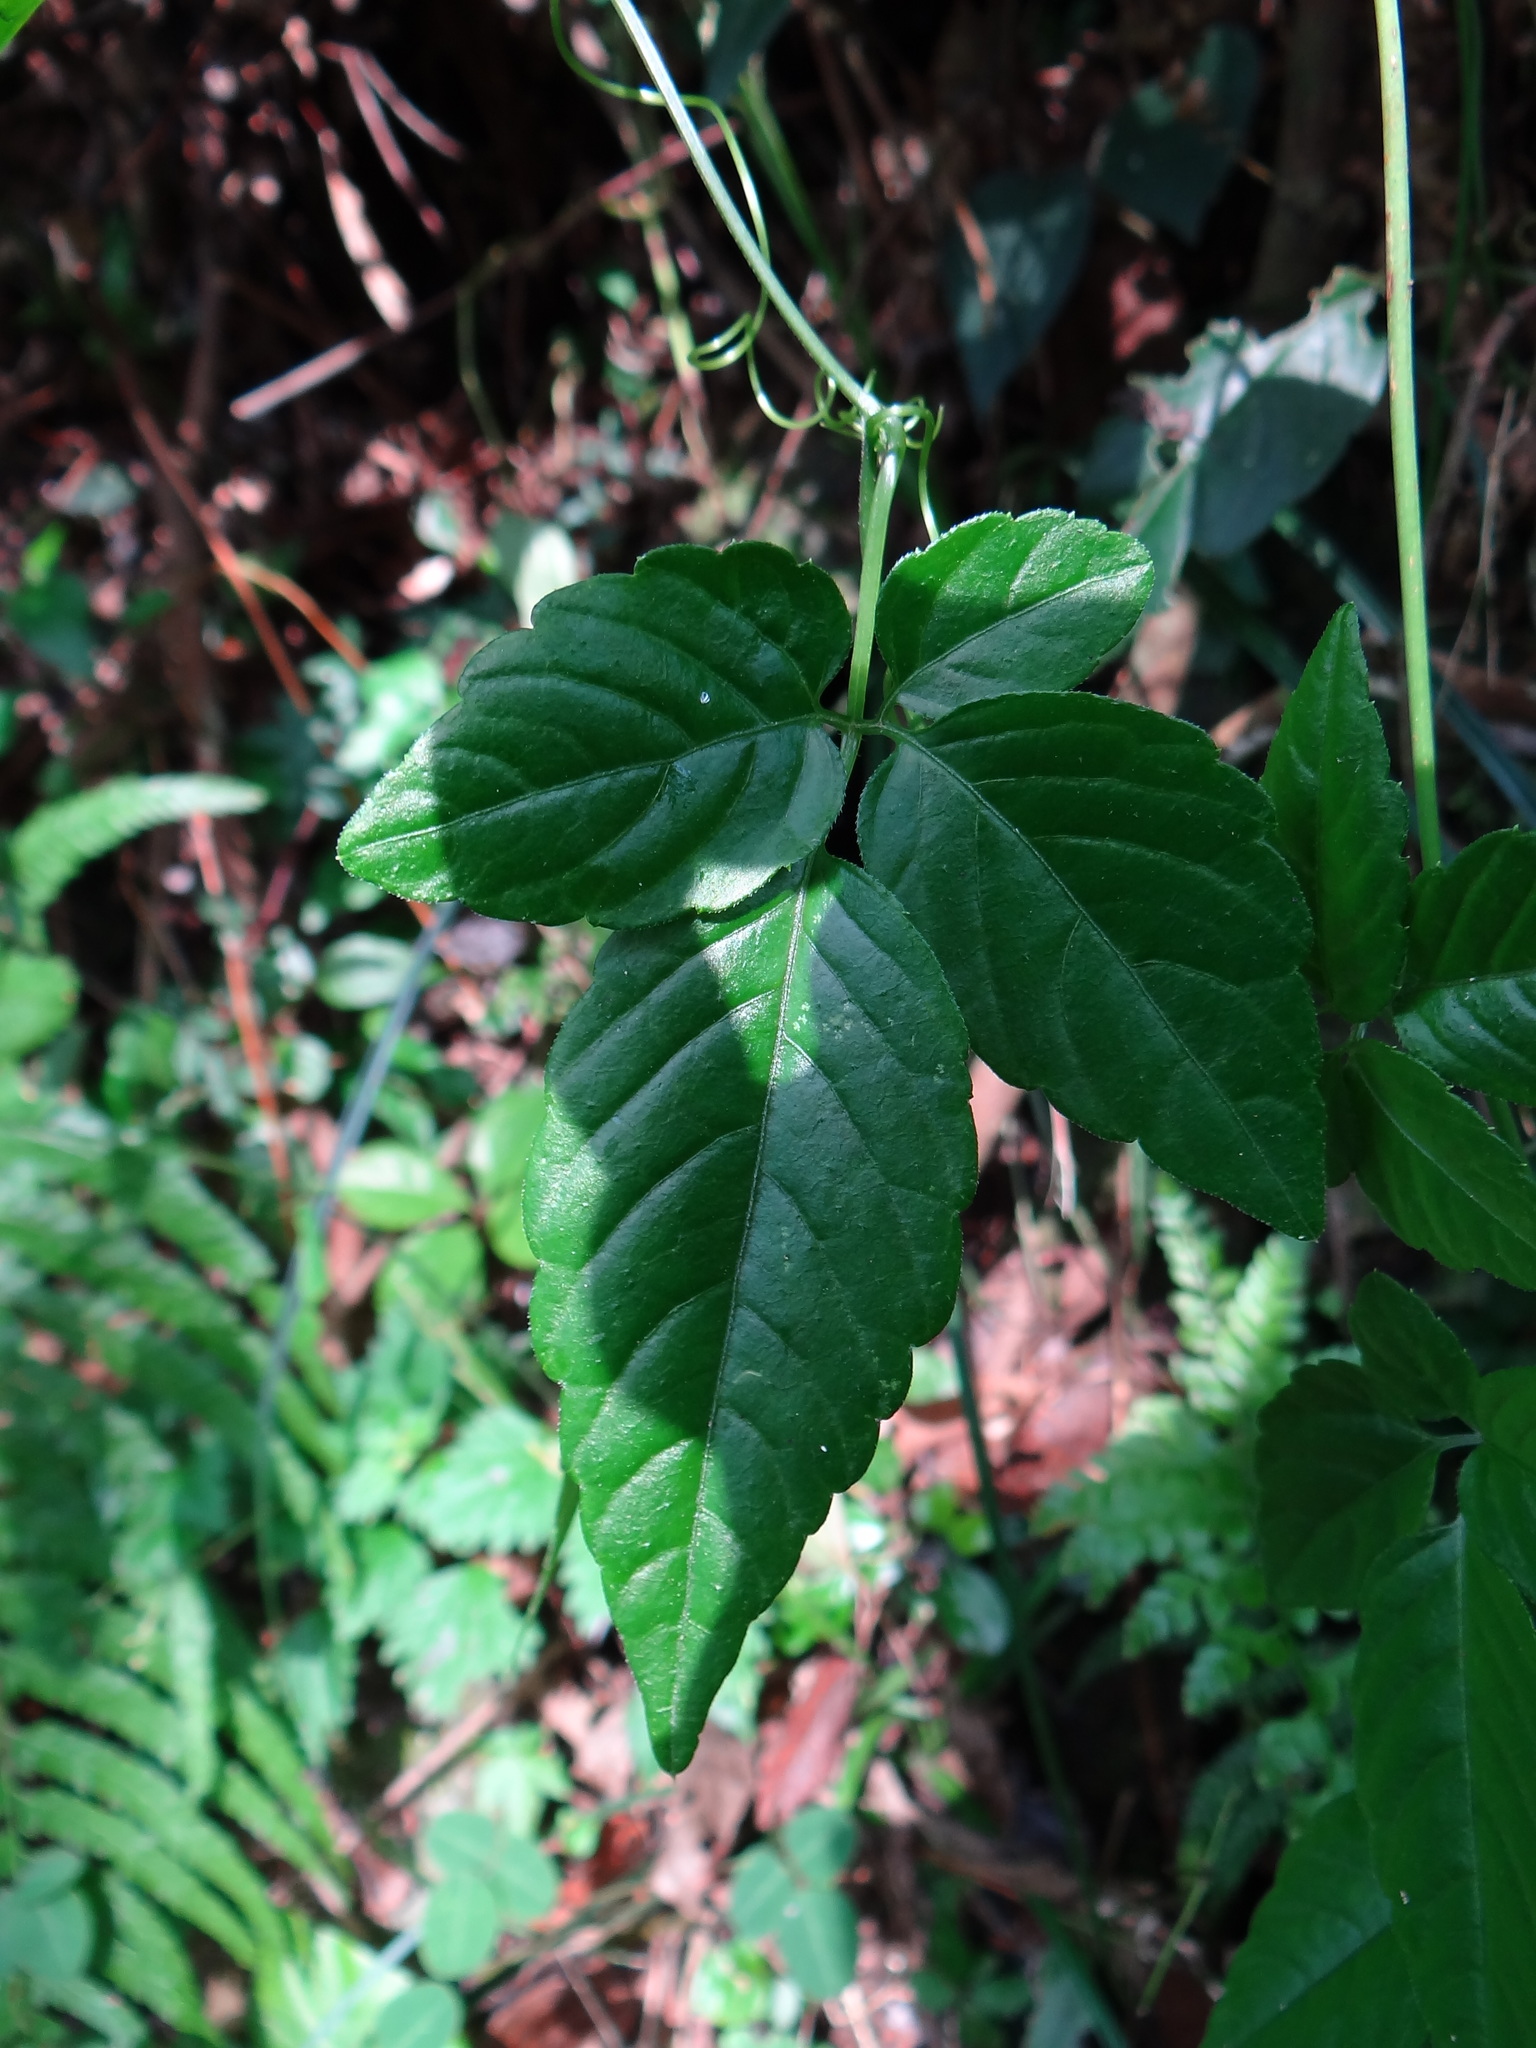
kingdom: Plantae
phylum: Tracheophyta
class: Magnoliopsida
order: Cucurbitales
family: Cucurbitaceae
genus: Gynostemma
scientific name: Gynostemma pentaphyllum
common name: Gynostemma
